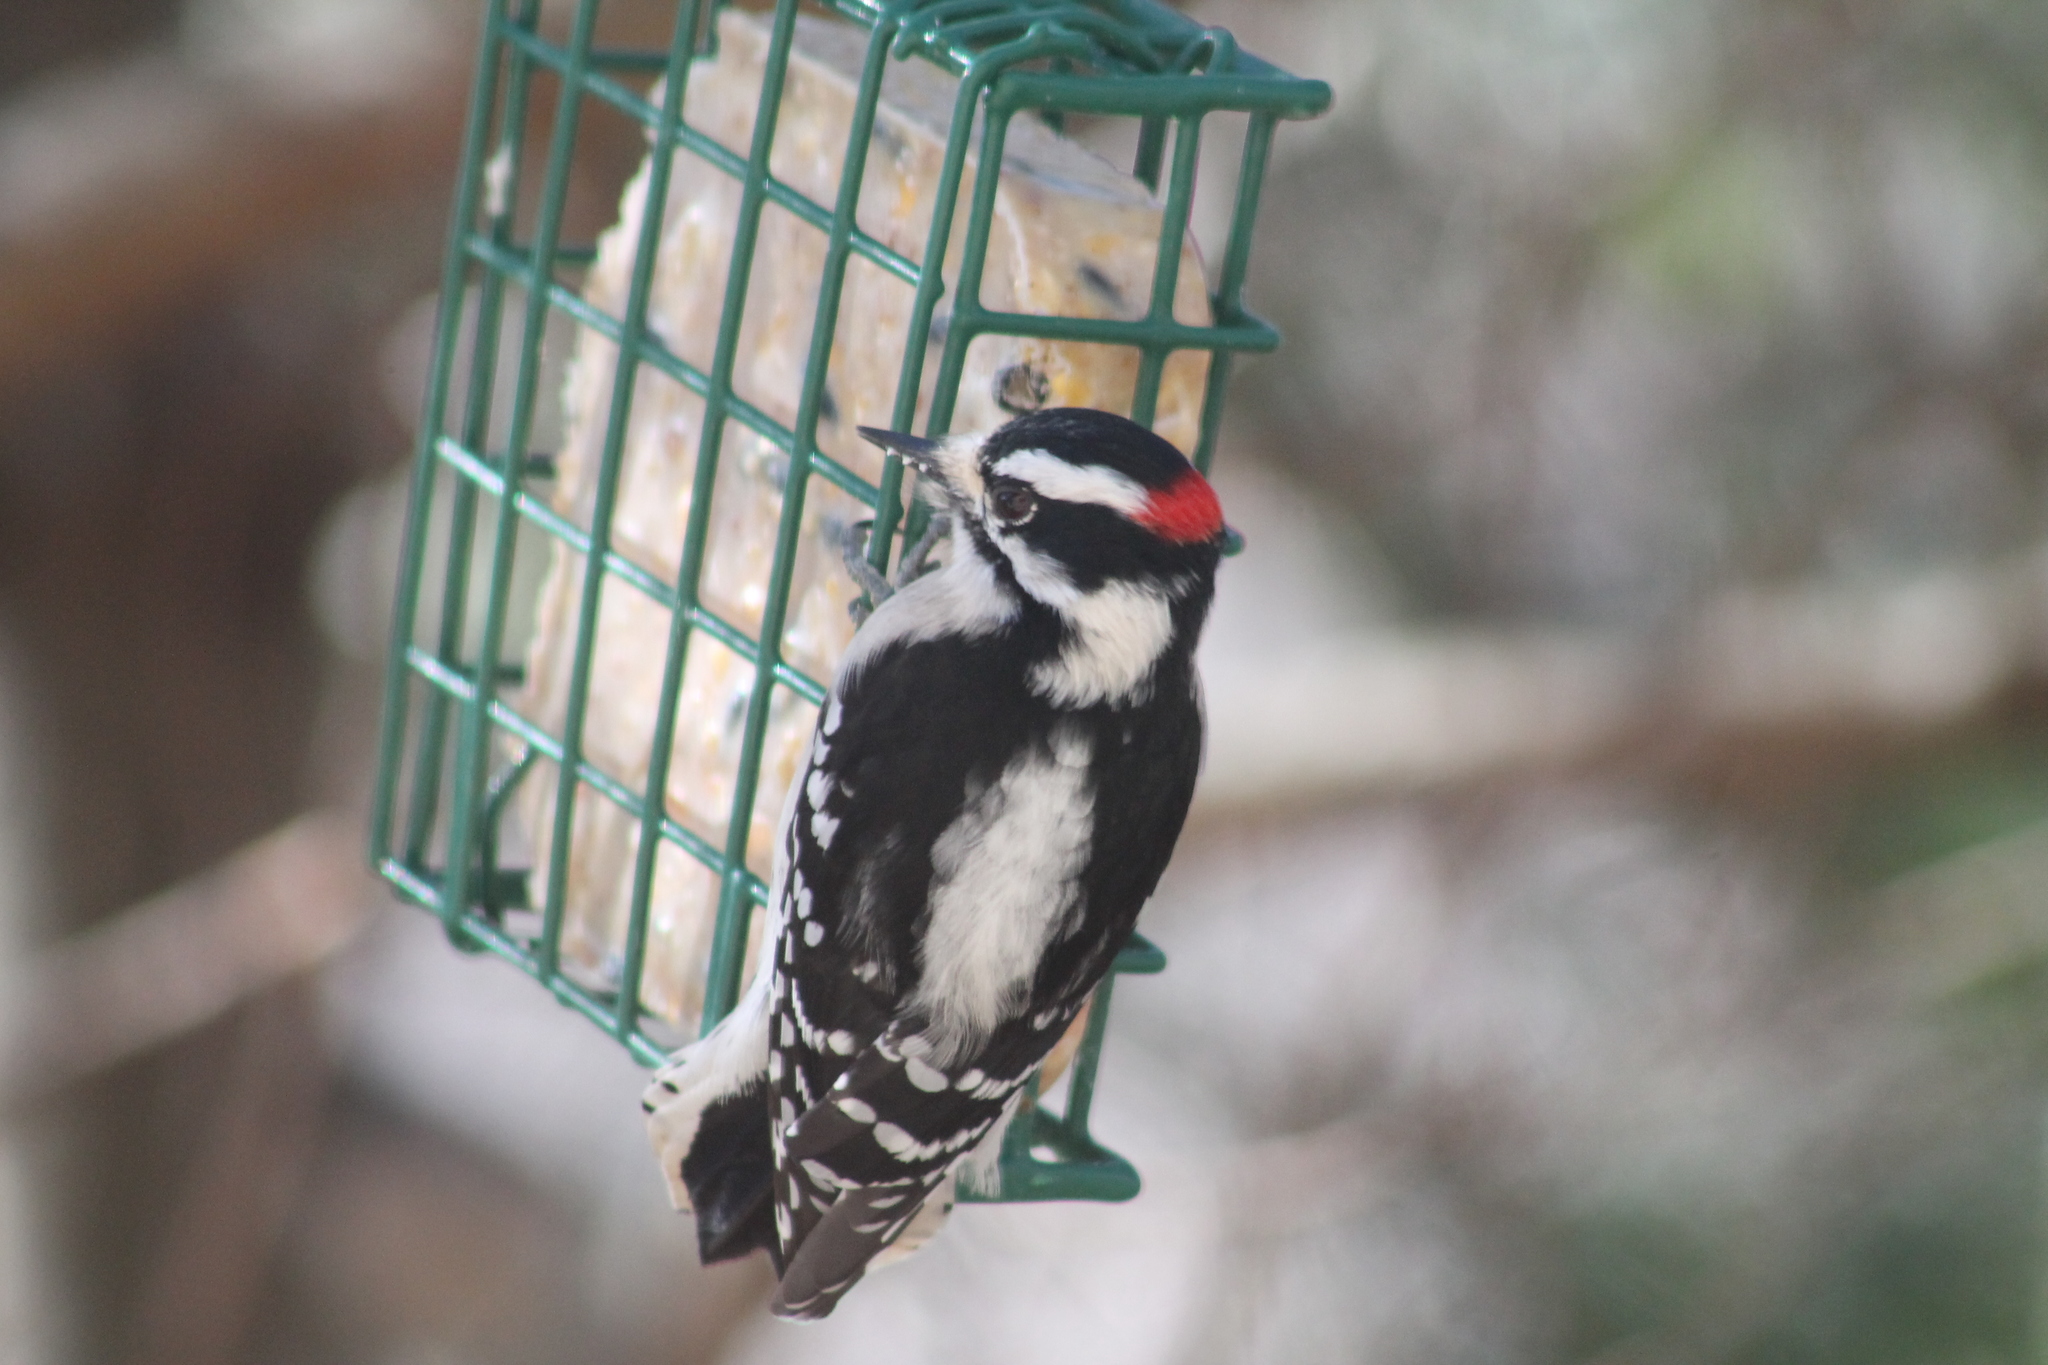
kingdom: Animalia
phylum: Chordata
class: Aves
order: Piciformes
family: Picidae
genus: Dryobates
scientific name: Dryobates pubescens
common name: Downy woodpecker
